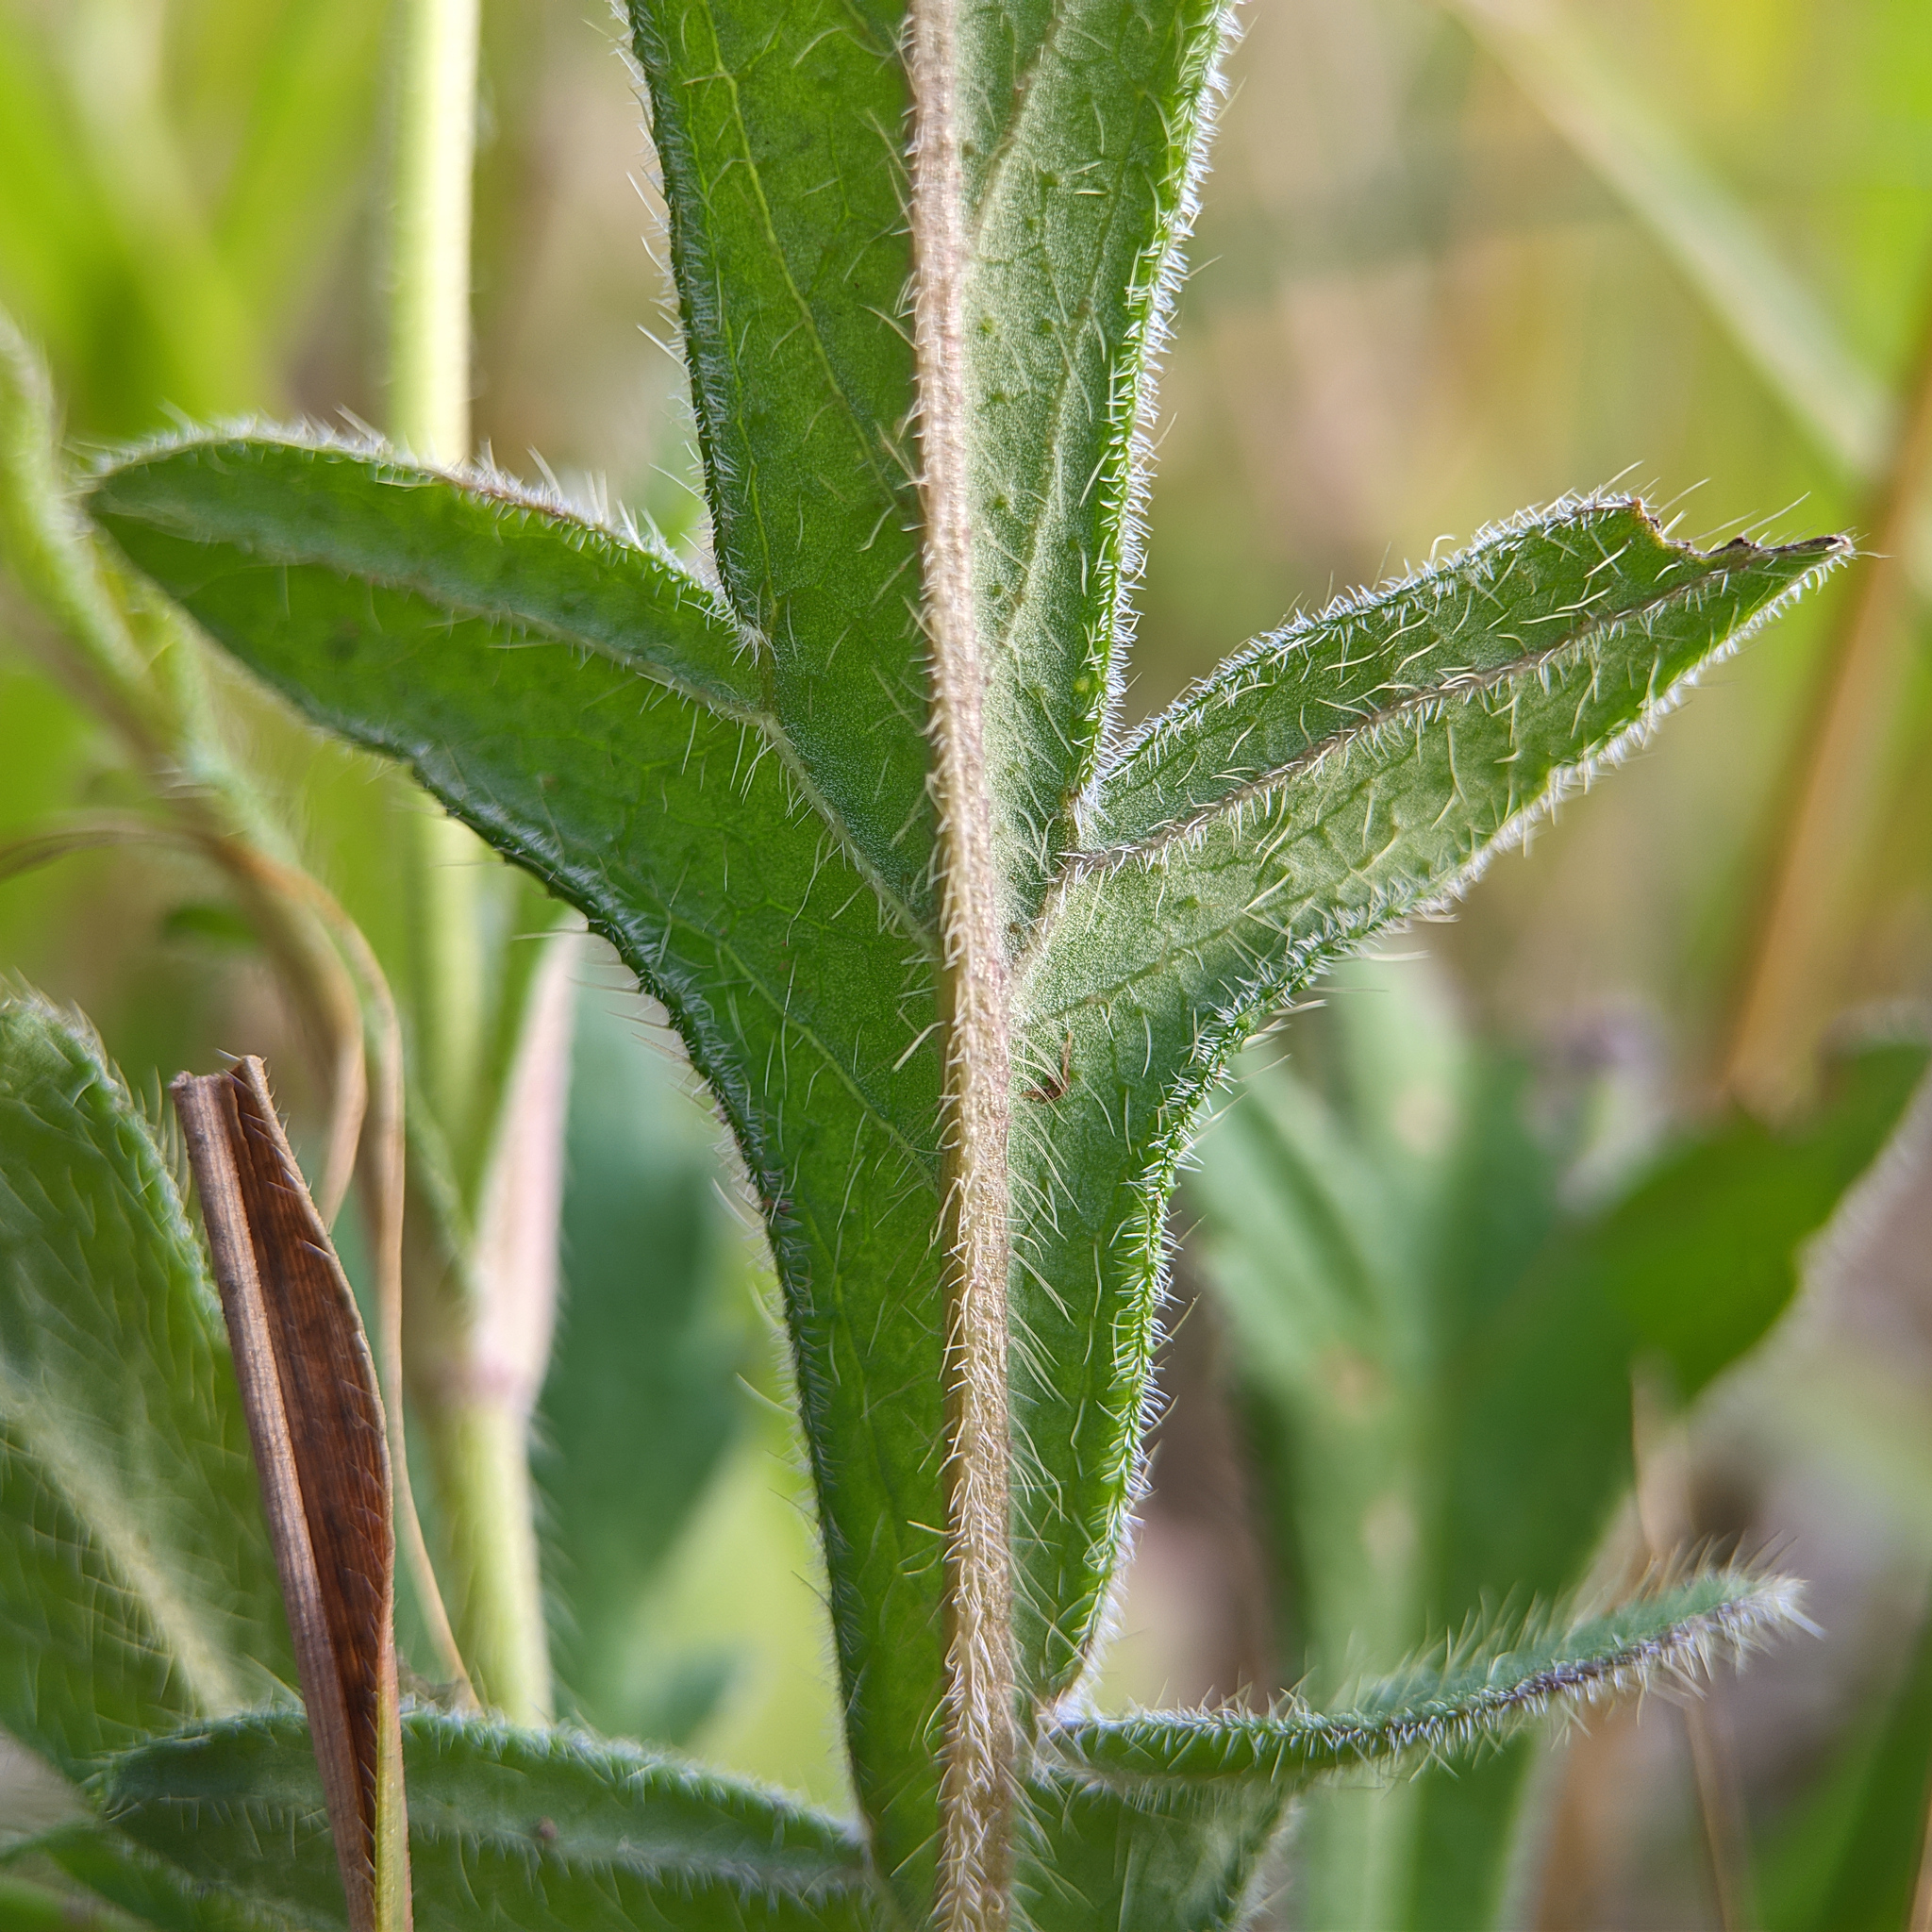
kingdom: Plantae
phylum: Tracheophyta
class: Magnoliopsida
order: Dipsacales
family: Caprifoliaceae
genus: Knautia
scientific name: Knautia arvensis
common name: Field scabiosa
